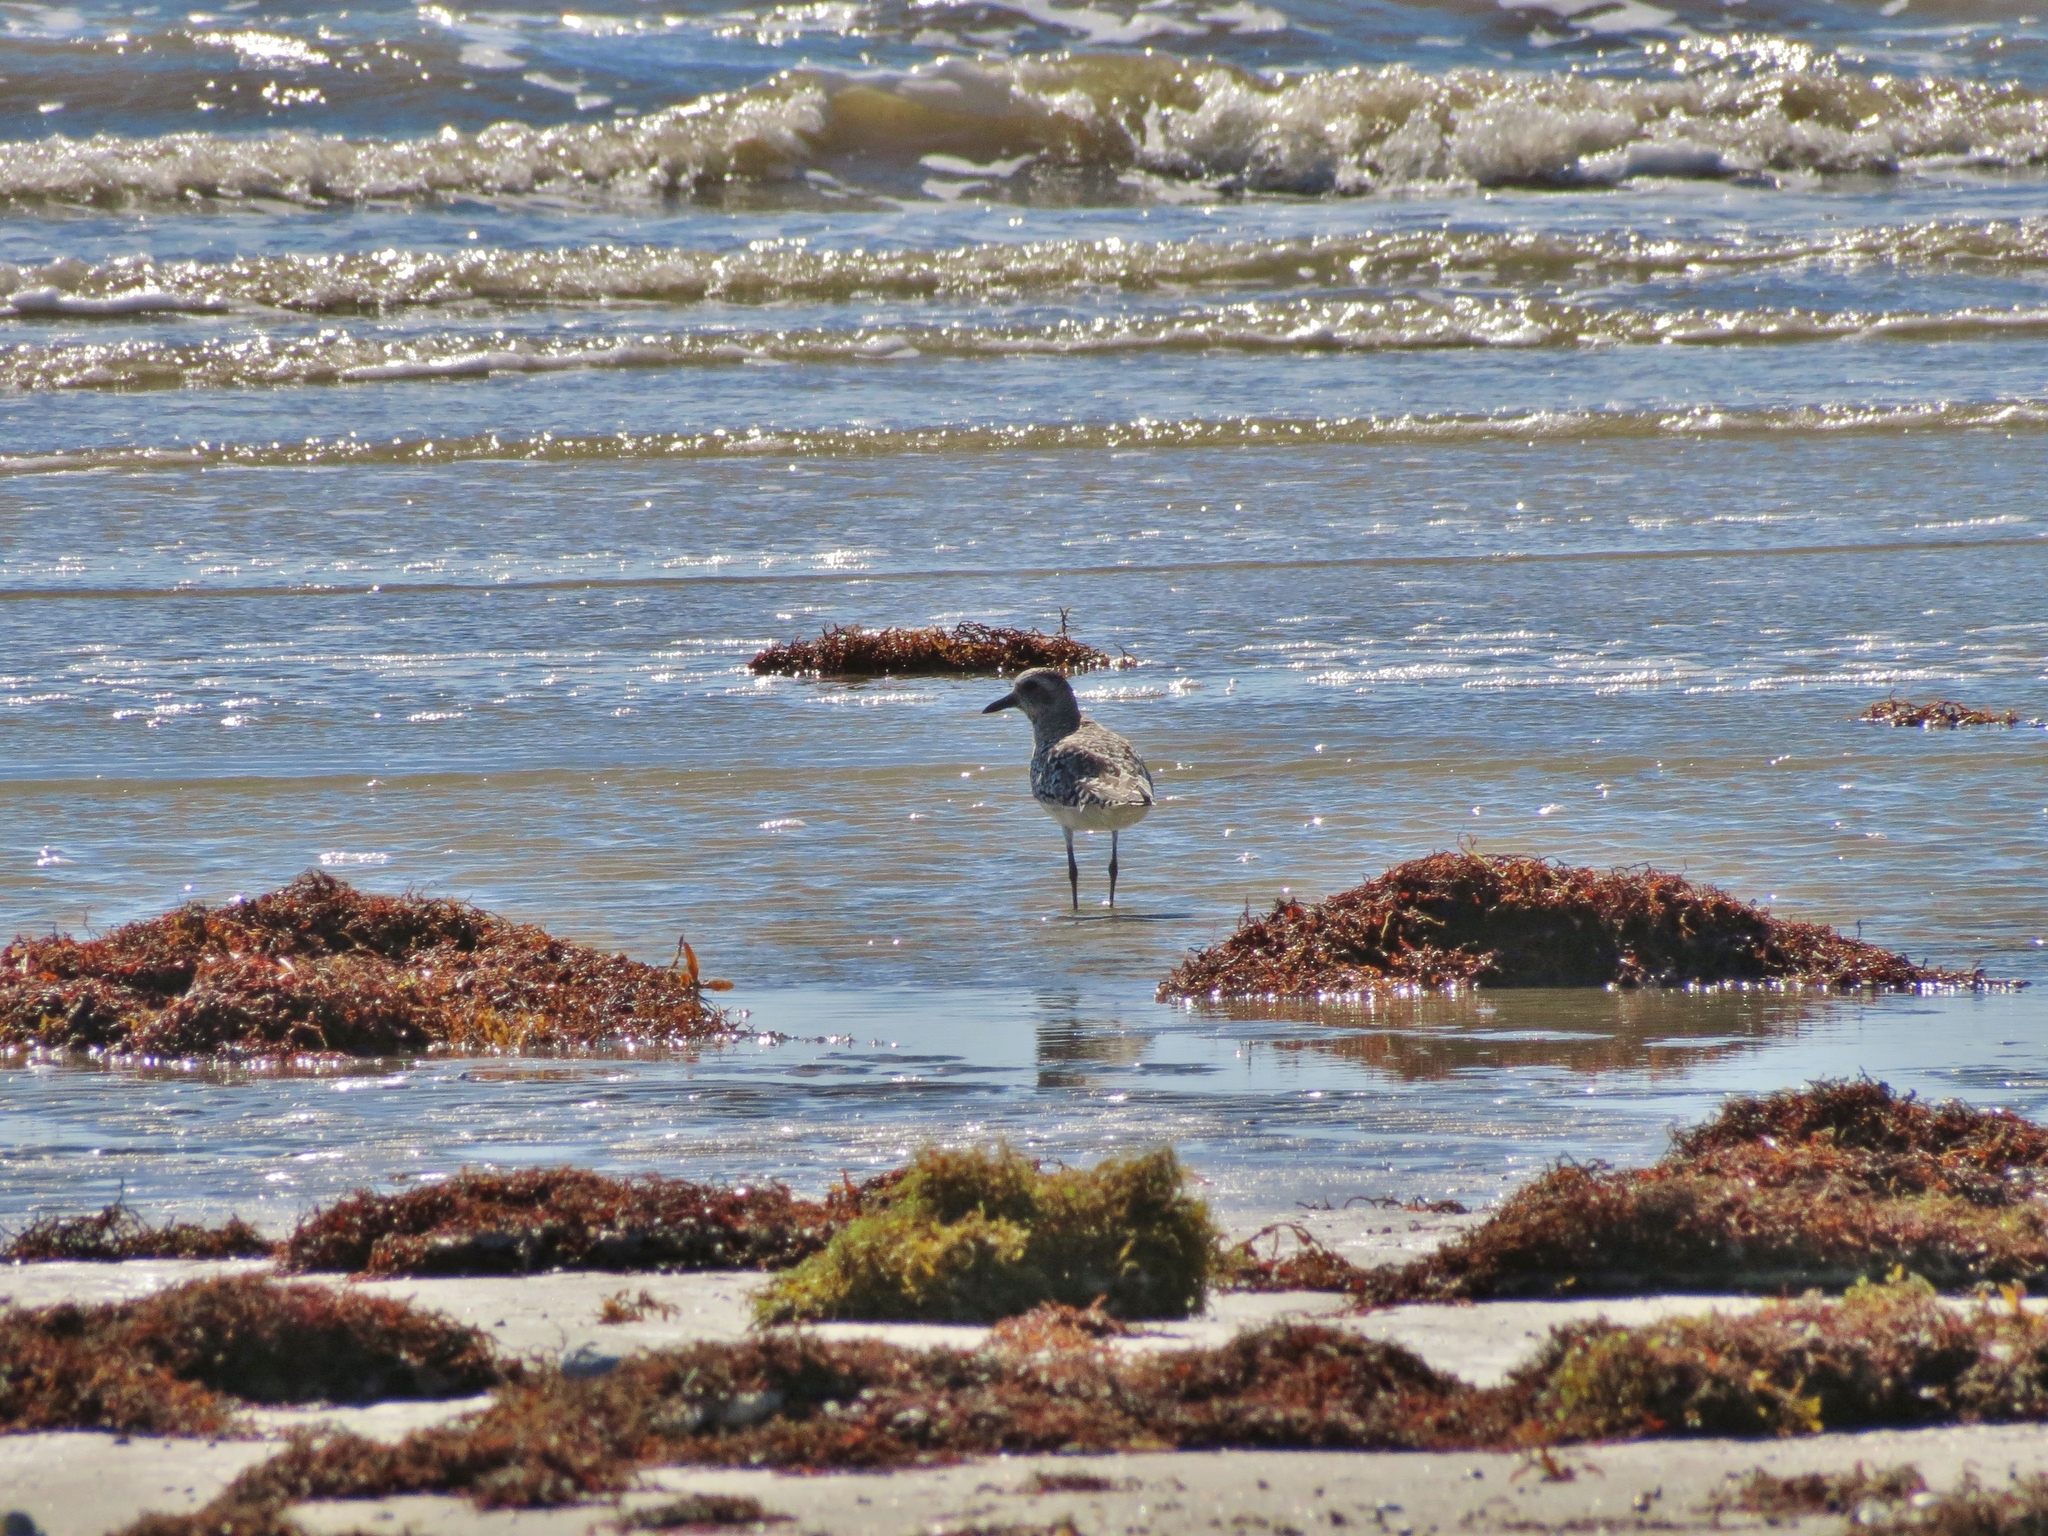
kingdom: Animalia
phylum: Chordata
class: Aves
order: Charadriiformes
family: Charadriidae
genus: Pluvialis
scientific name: Pluvialis squatarola
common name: Grey plover
